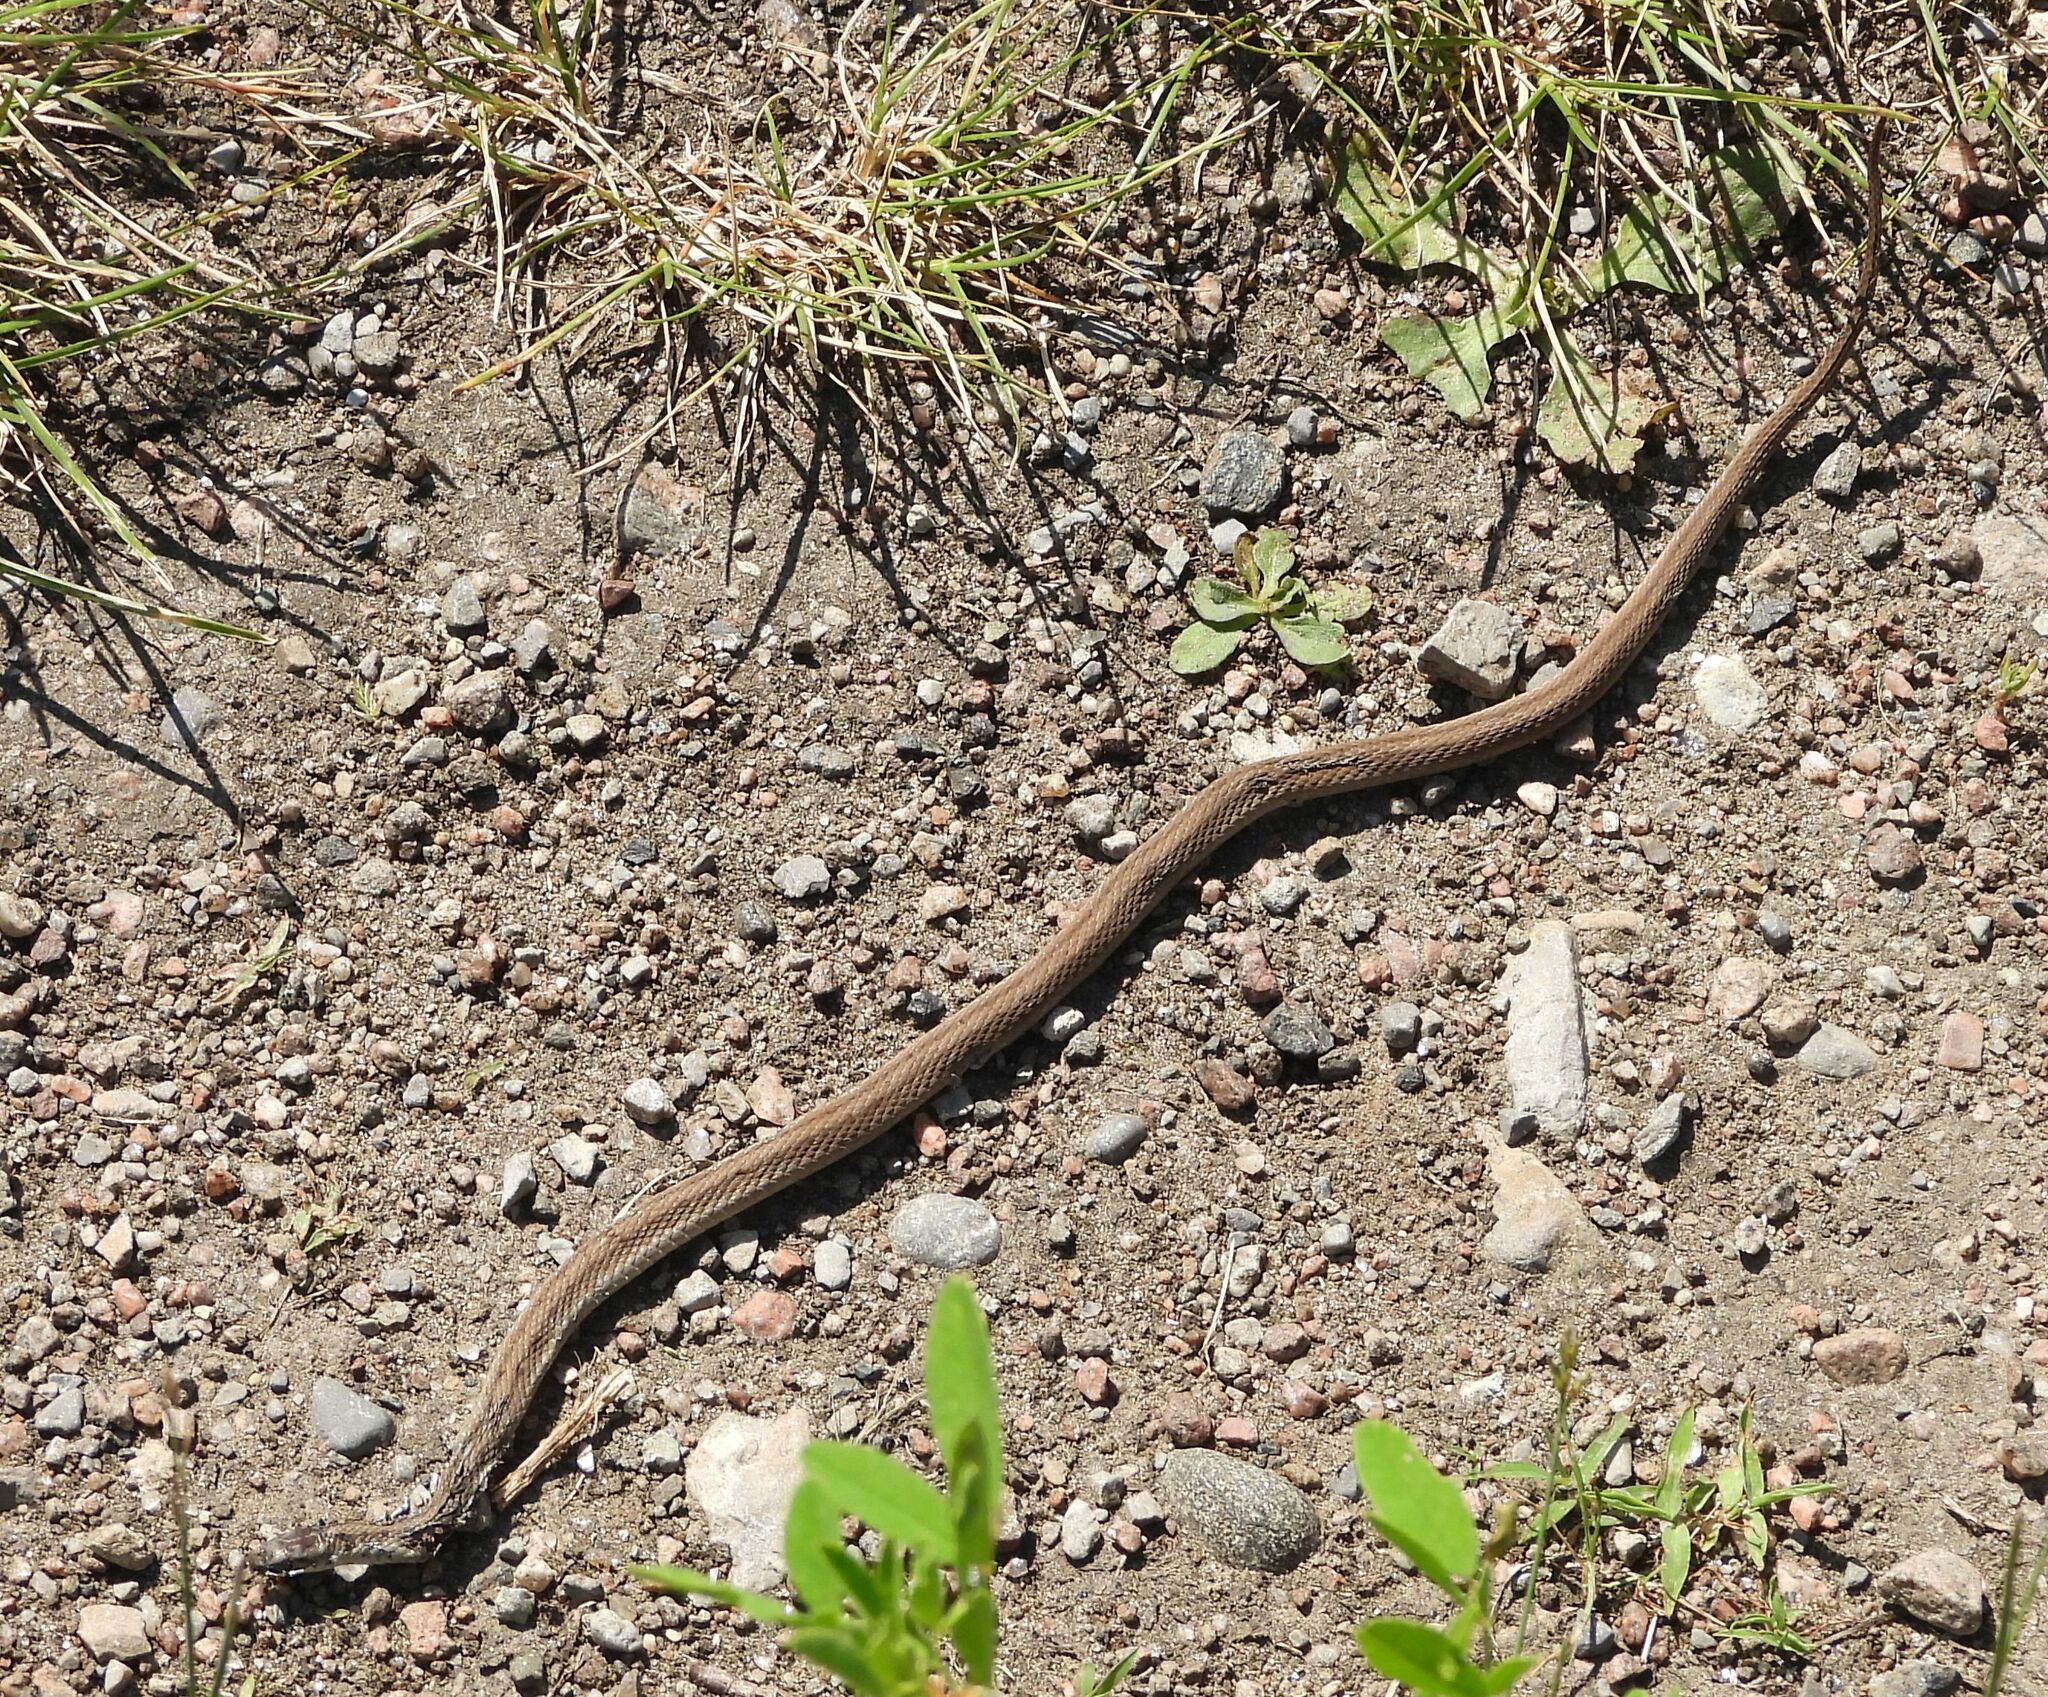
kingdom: Animalia
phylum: Chordata
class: Squamata
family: Colubridae
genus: Storeria
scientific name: Storeria dekayi
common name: (dekay’s) brown snake
